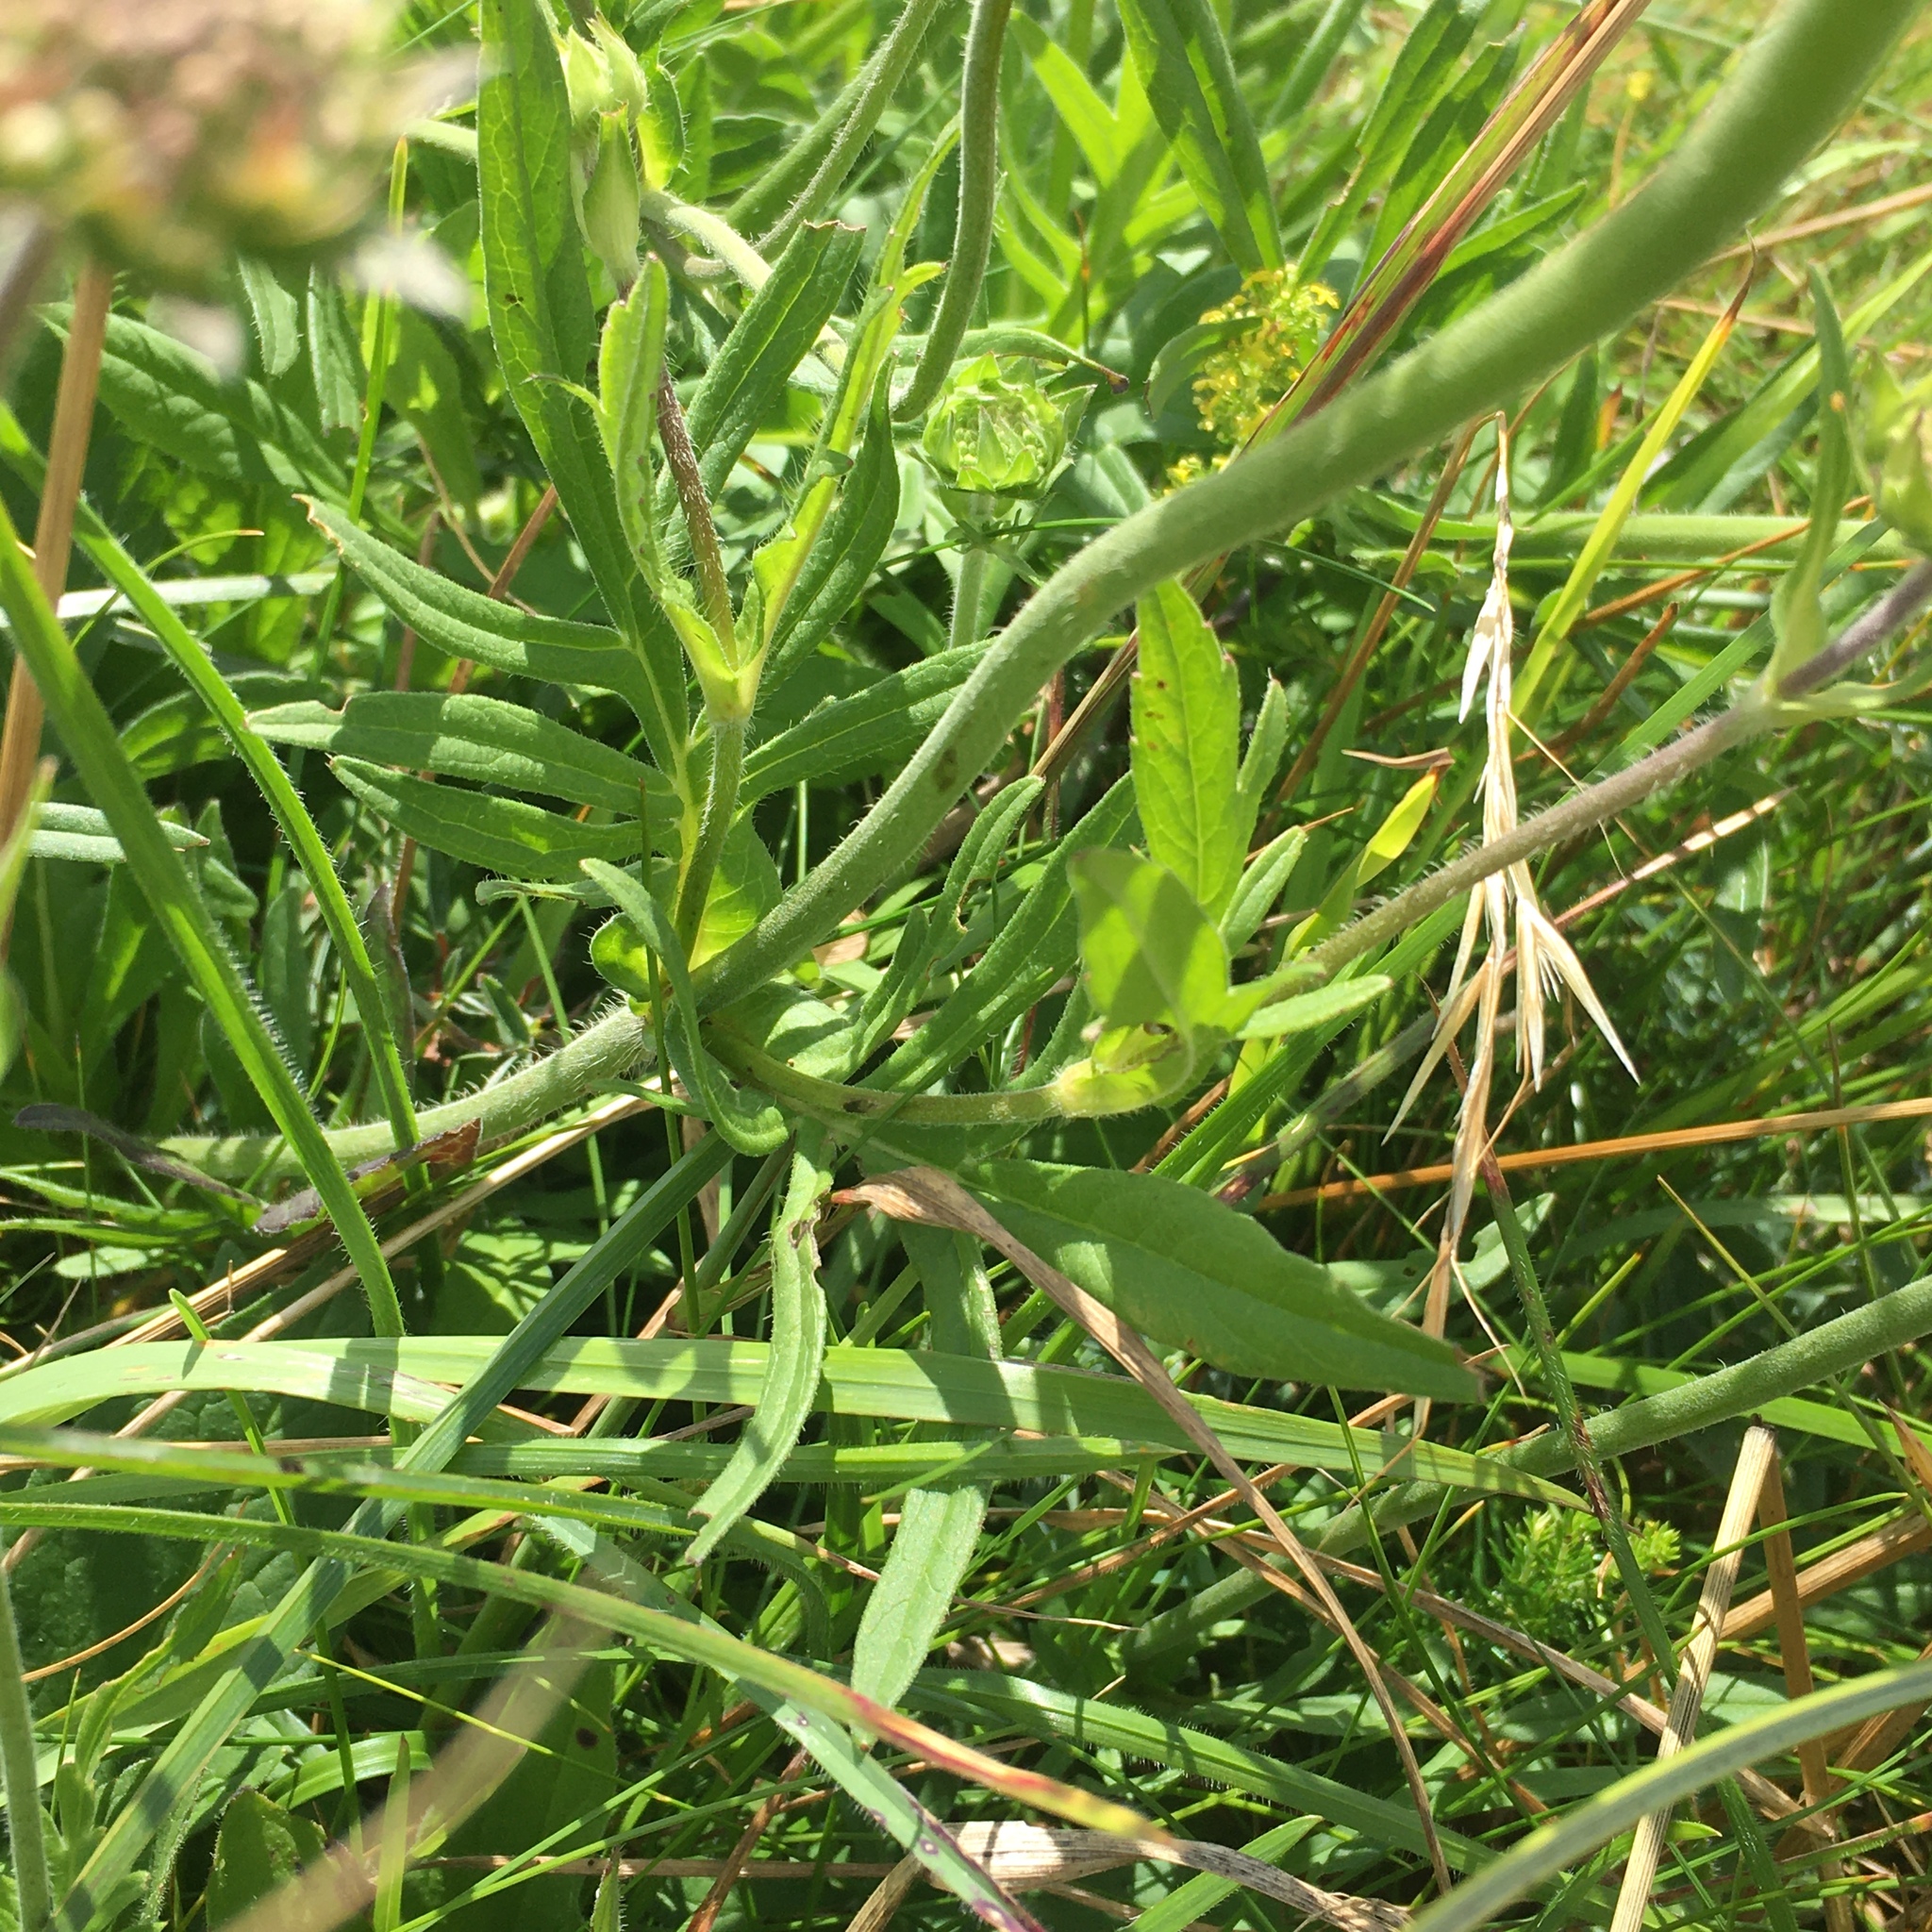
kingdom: Plantae
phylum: Tracheophyta
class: Magnoliopsida
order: Dipsacales
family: Caprifoliaceae
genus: Knautia
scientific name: Knautia arvensis
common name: Field scabiosa
